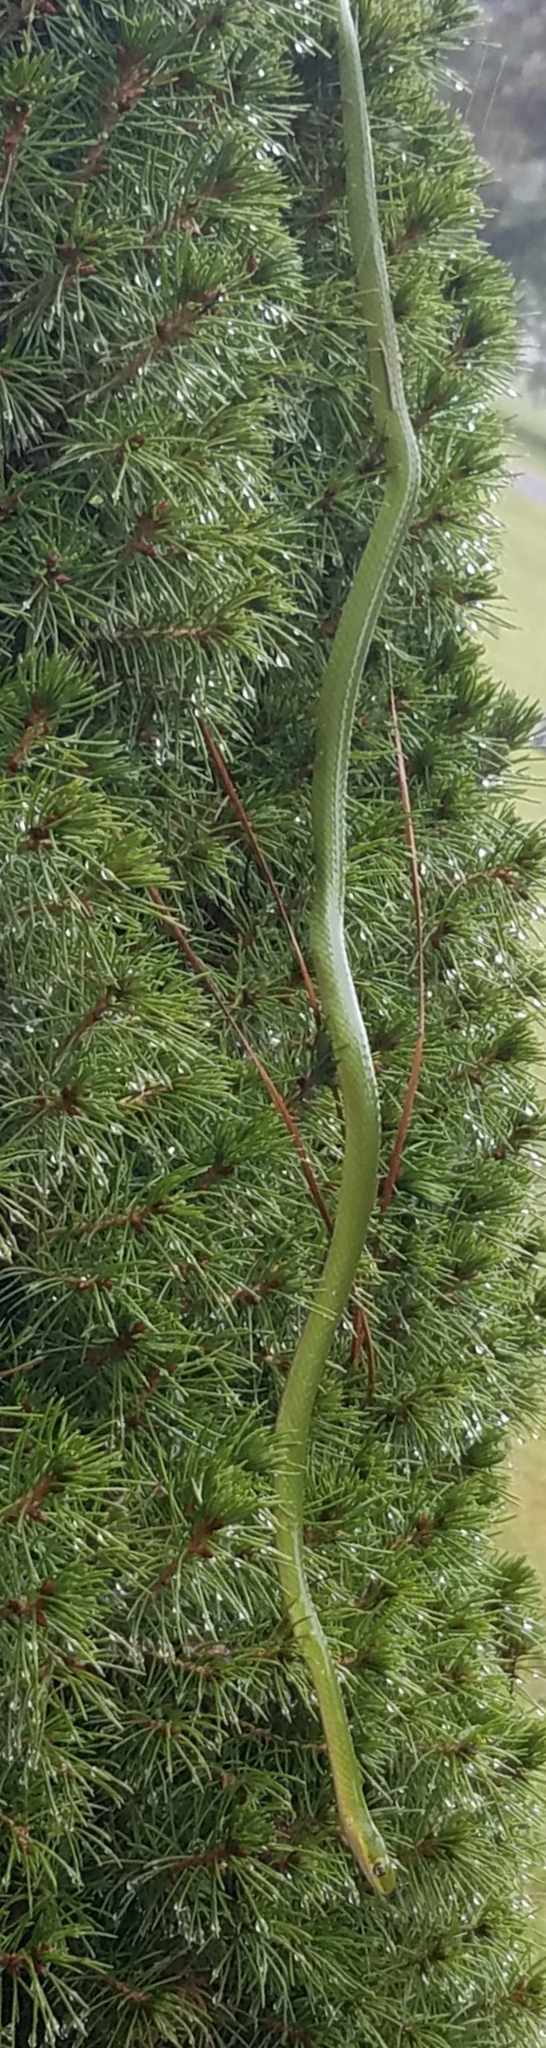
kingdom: Animalia
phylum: Chordata
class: Squamata
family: Colubridae
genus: Opheodrys
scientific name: Opheodrys aestivus
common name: Rough greensnake
